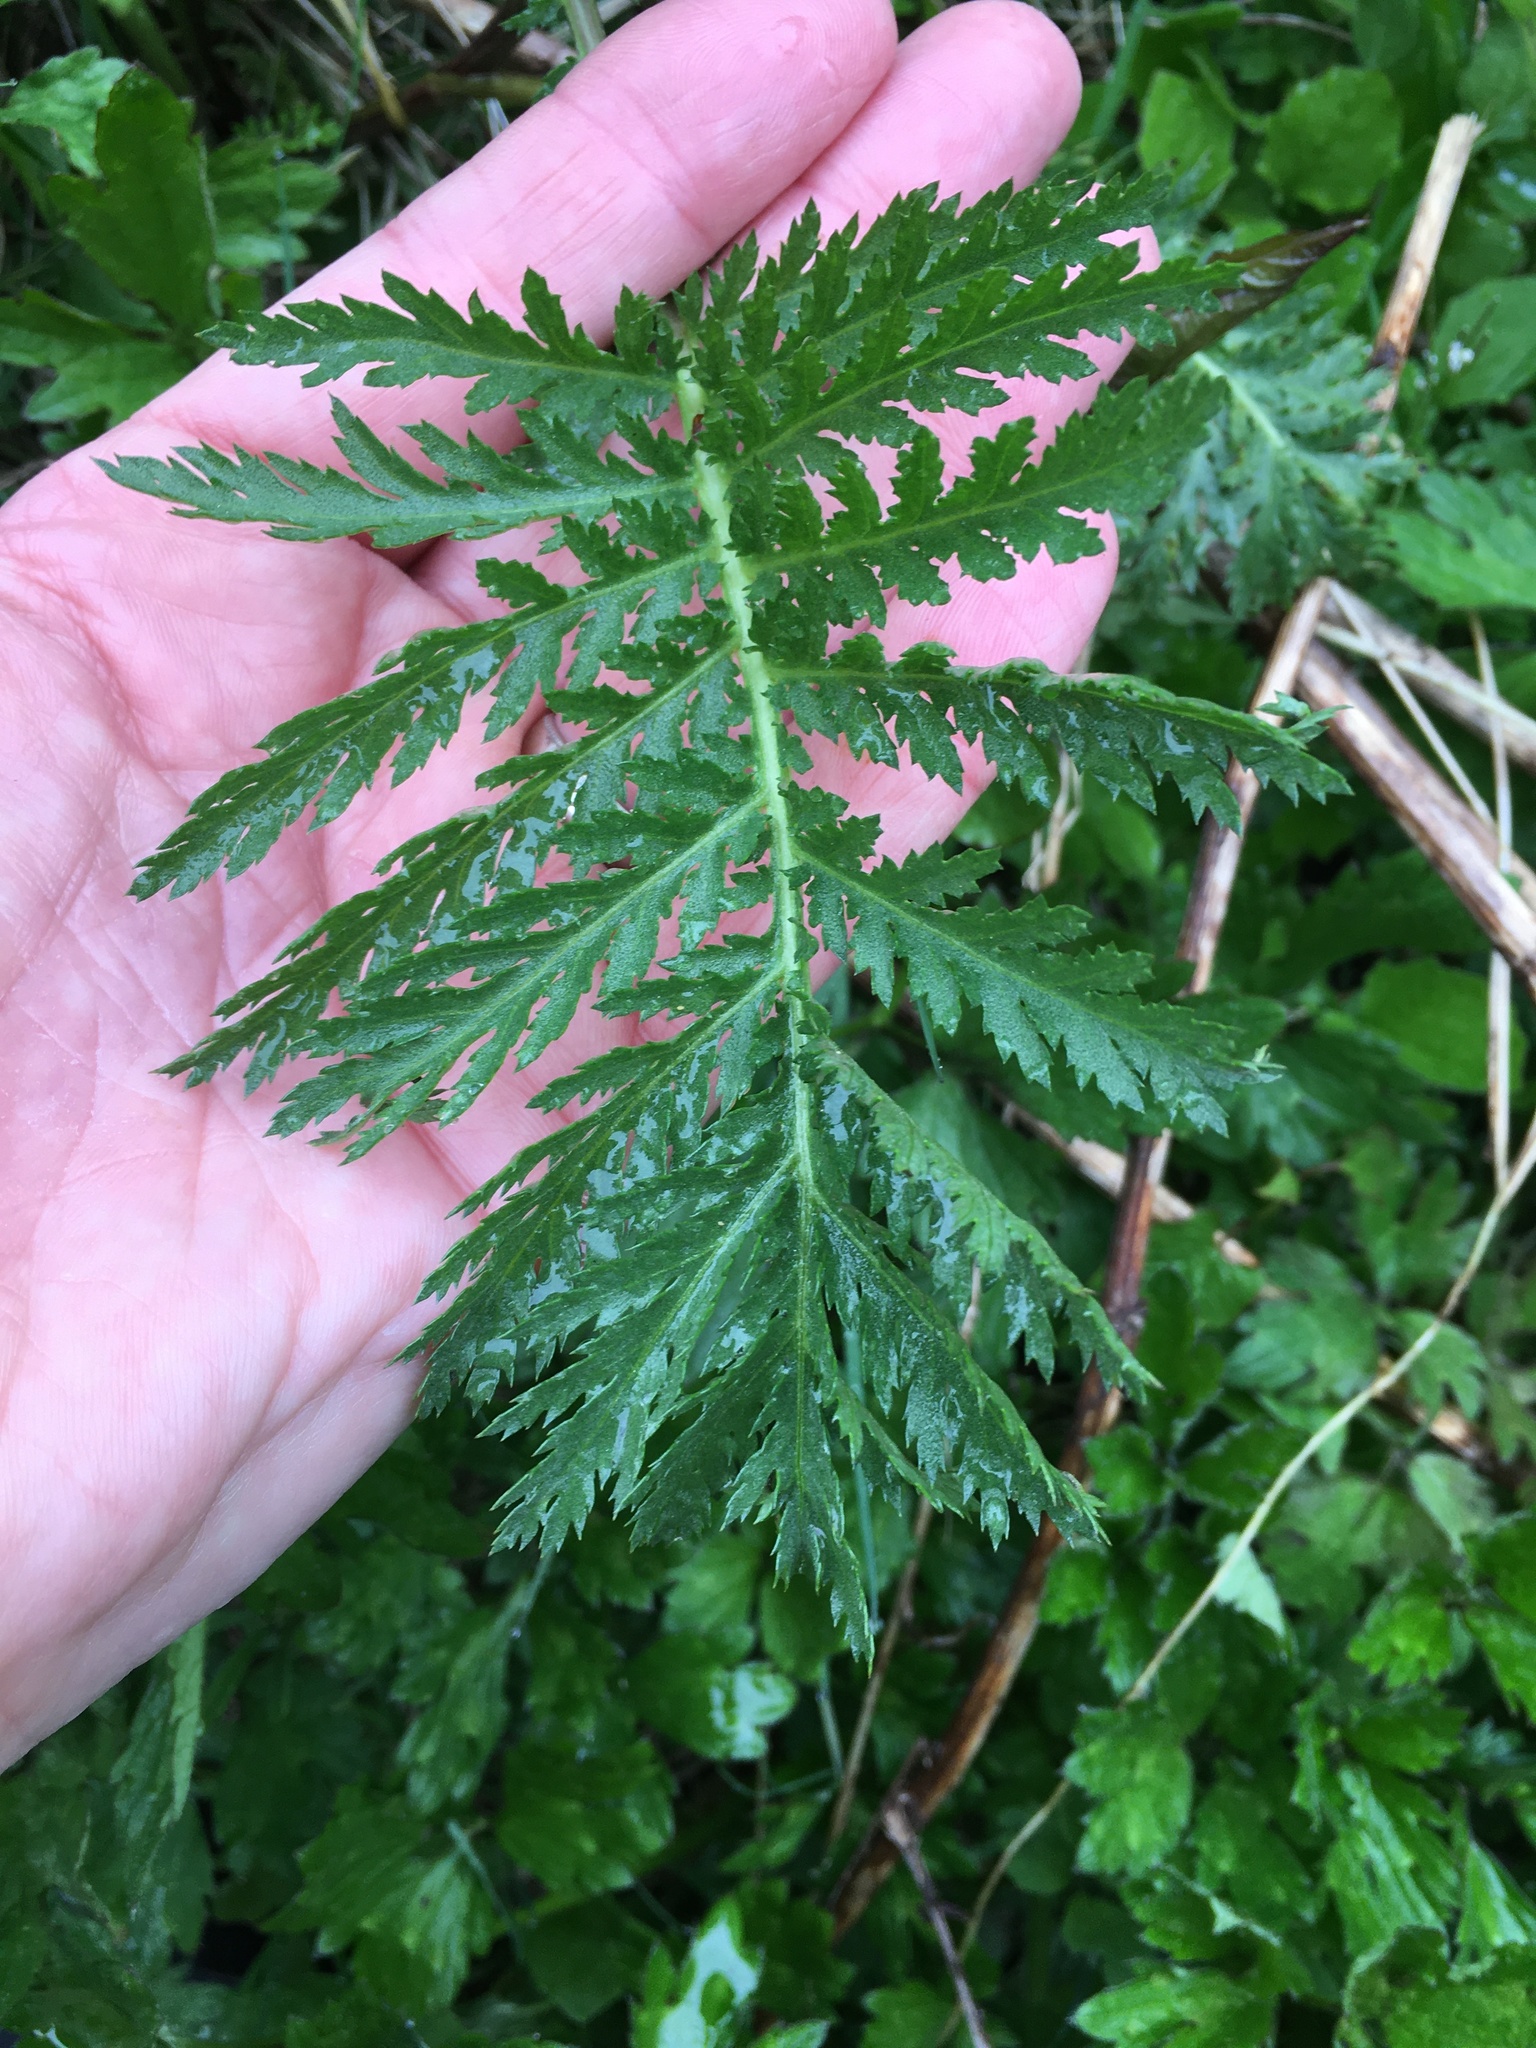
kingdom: Plantae
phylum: Tracheophyta
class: Magnoliopsida
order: Asterales
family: Asteraceae
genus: Tanacetum
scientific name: Tanacetum vulgare
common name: Common tansy
